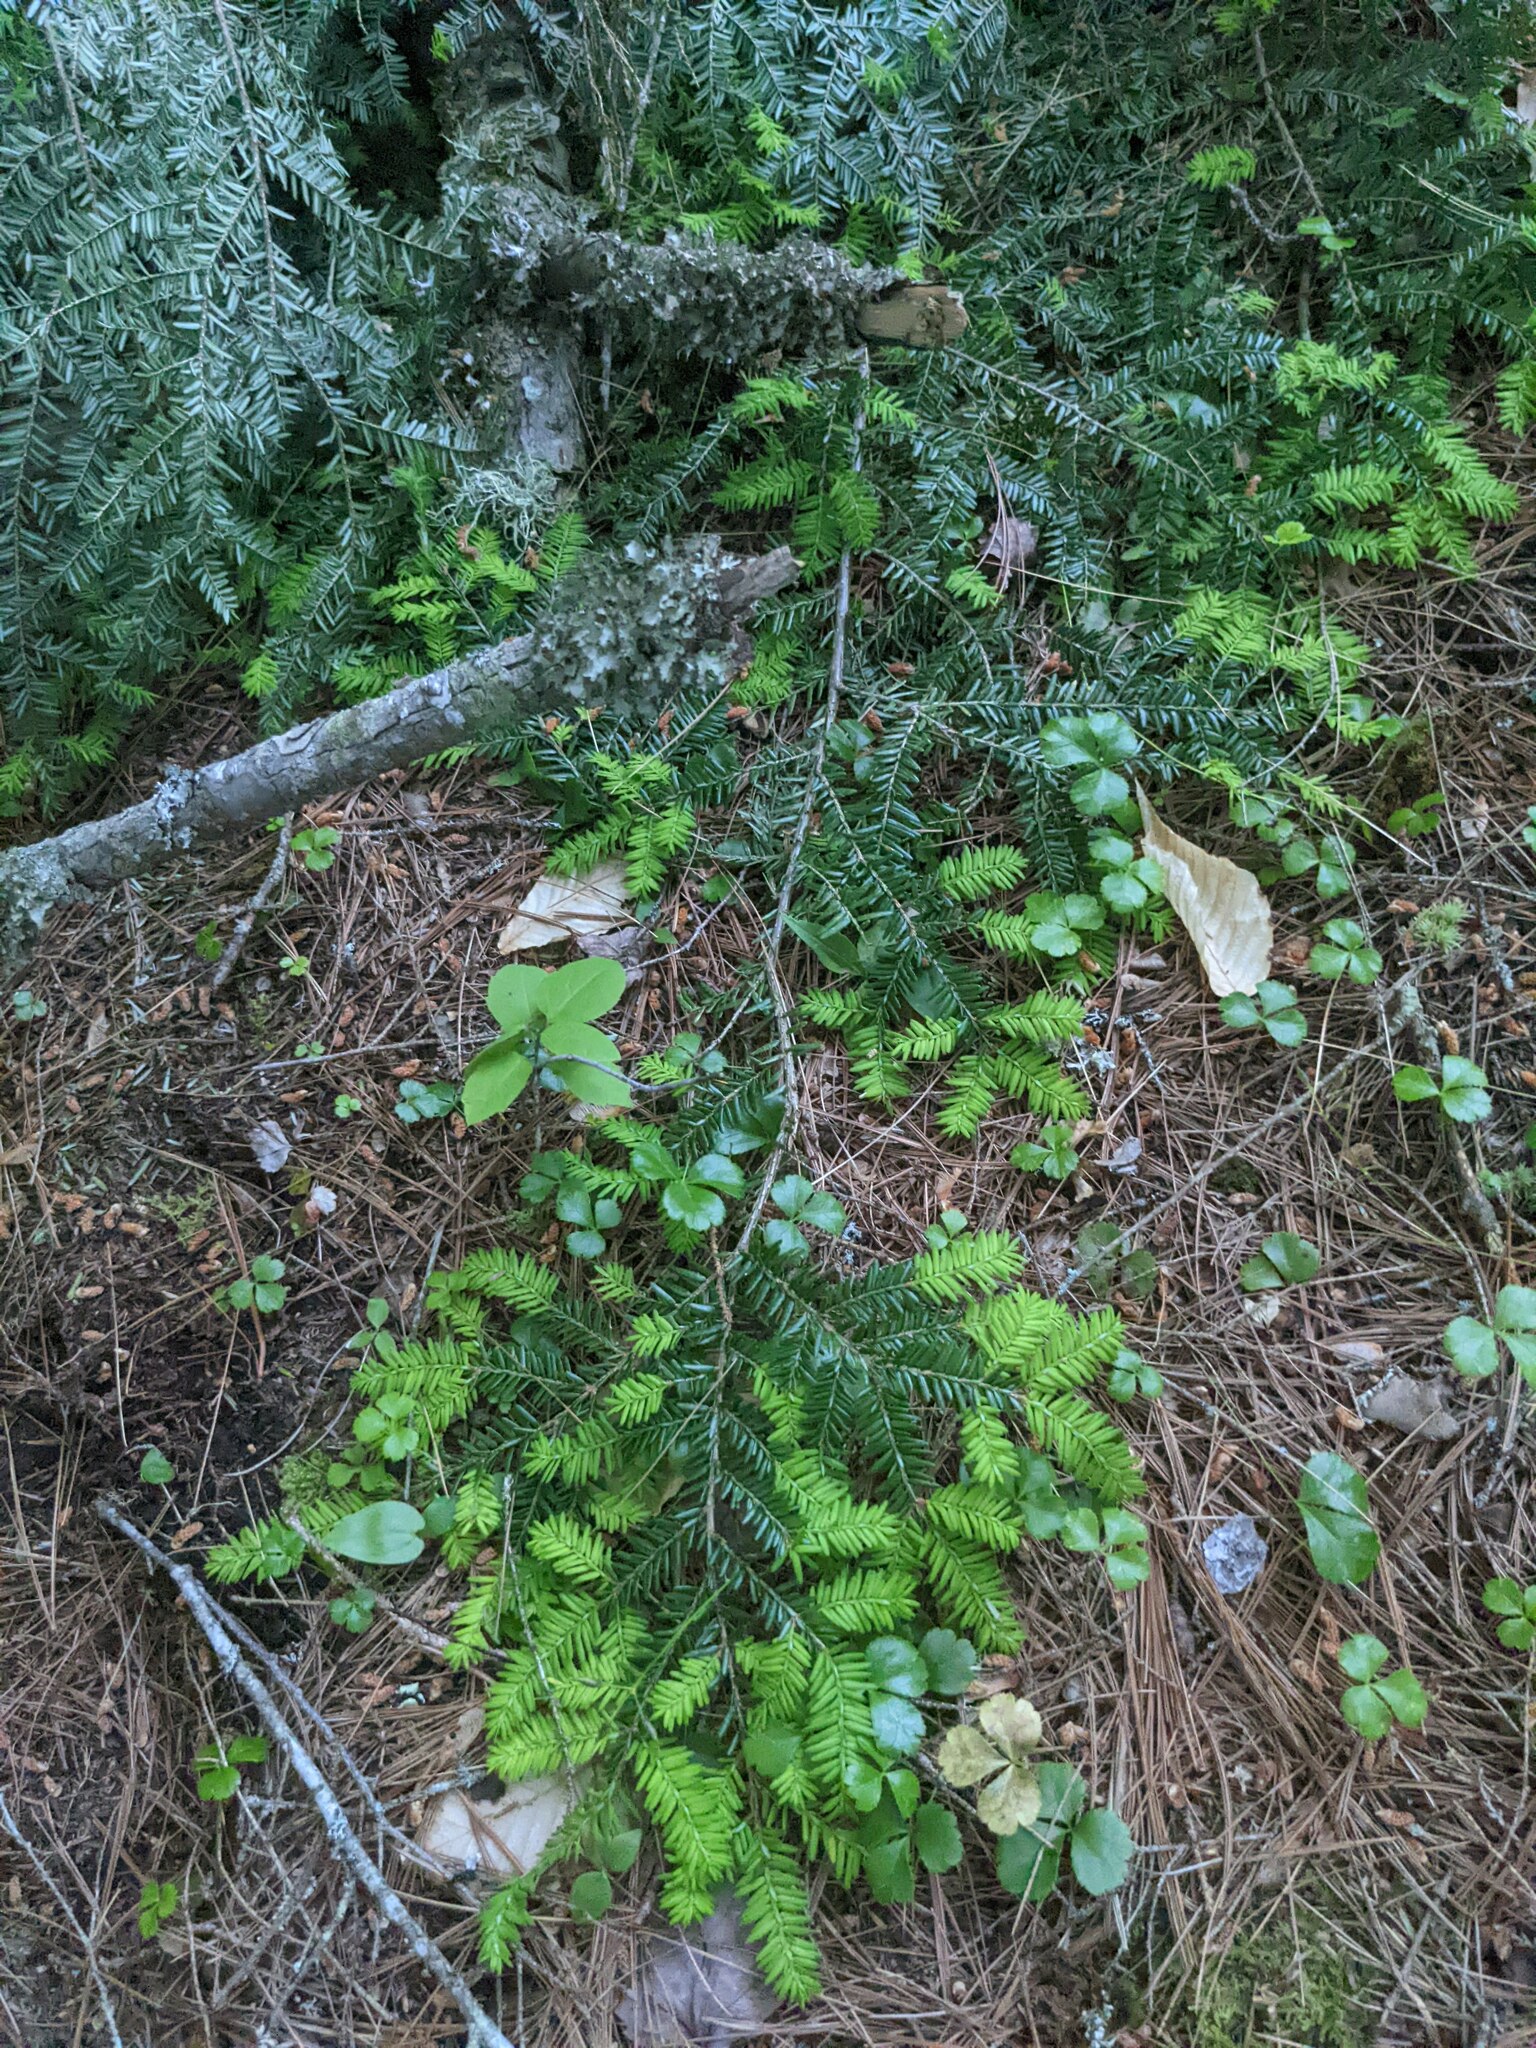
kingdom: Plantae
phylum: Tracheophyta
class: Pinopsida
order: Pinales
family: Pinaceae
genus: Tsuga
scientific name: Tsuga canadensis
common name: Eastern hemlock
